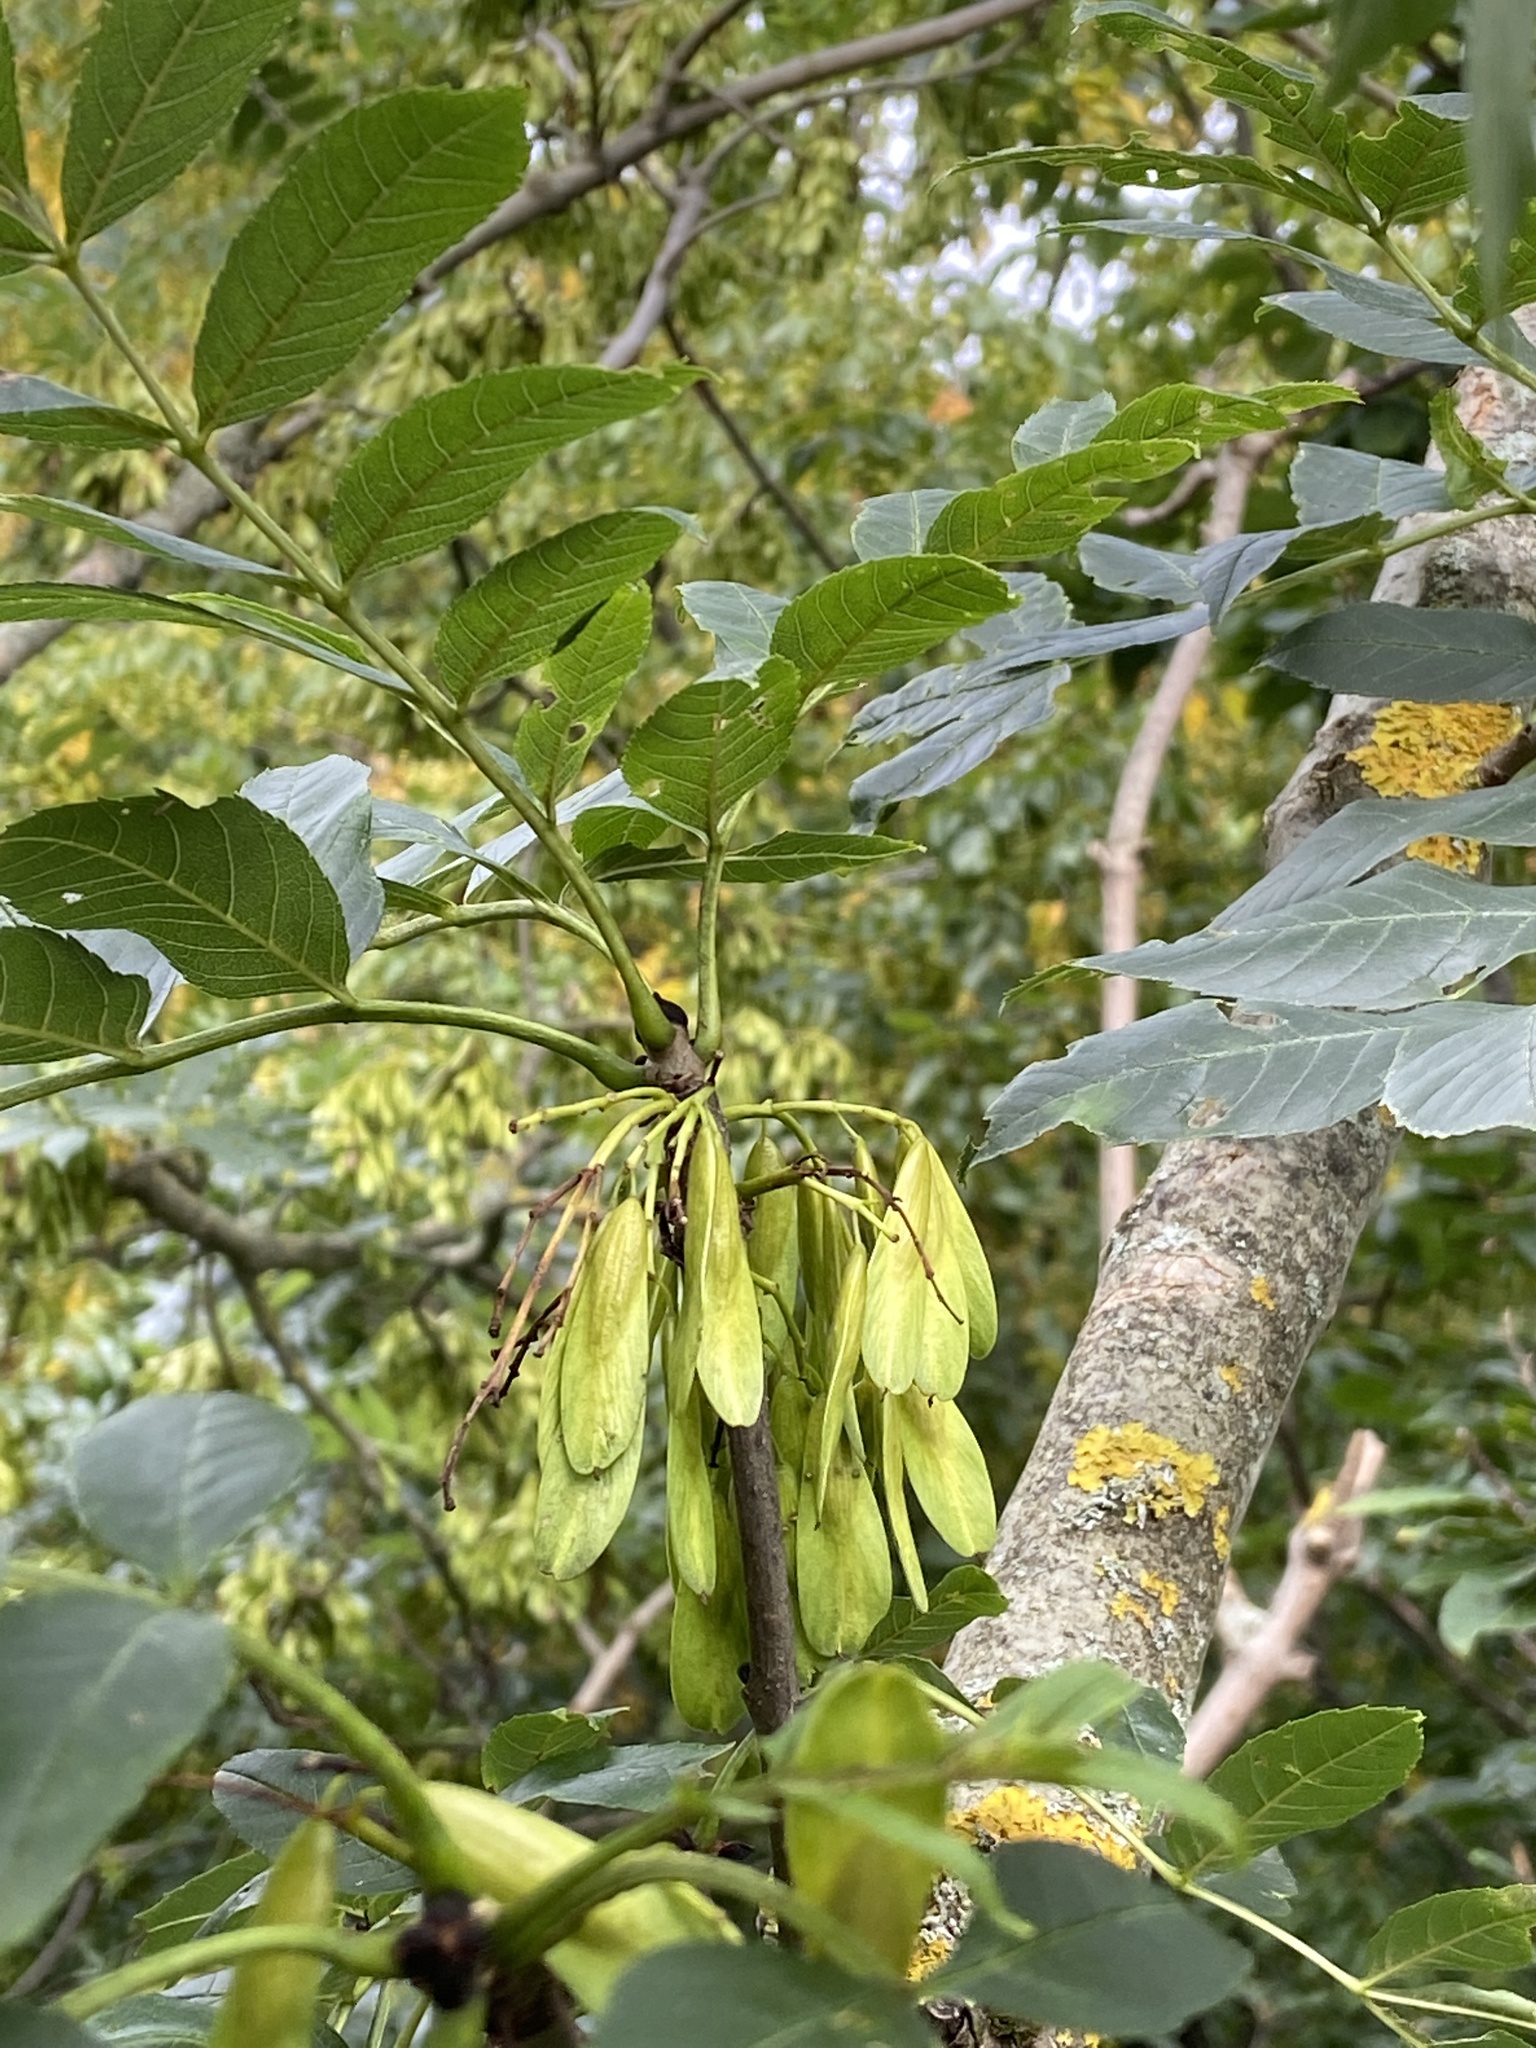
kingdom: Plantae
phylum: Tracheophyta
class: Magnoliopsida
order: Lamiales
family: Oleaceae
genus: Fraxinus
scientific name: Fraxinus excelsior
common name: European ash
